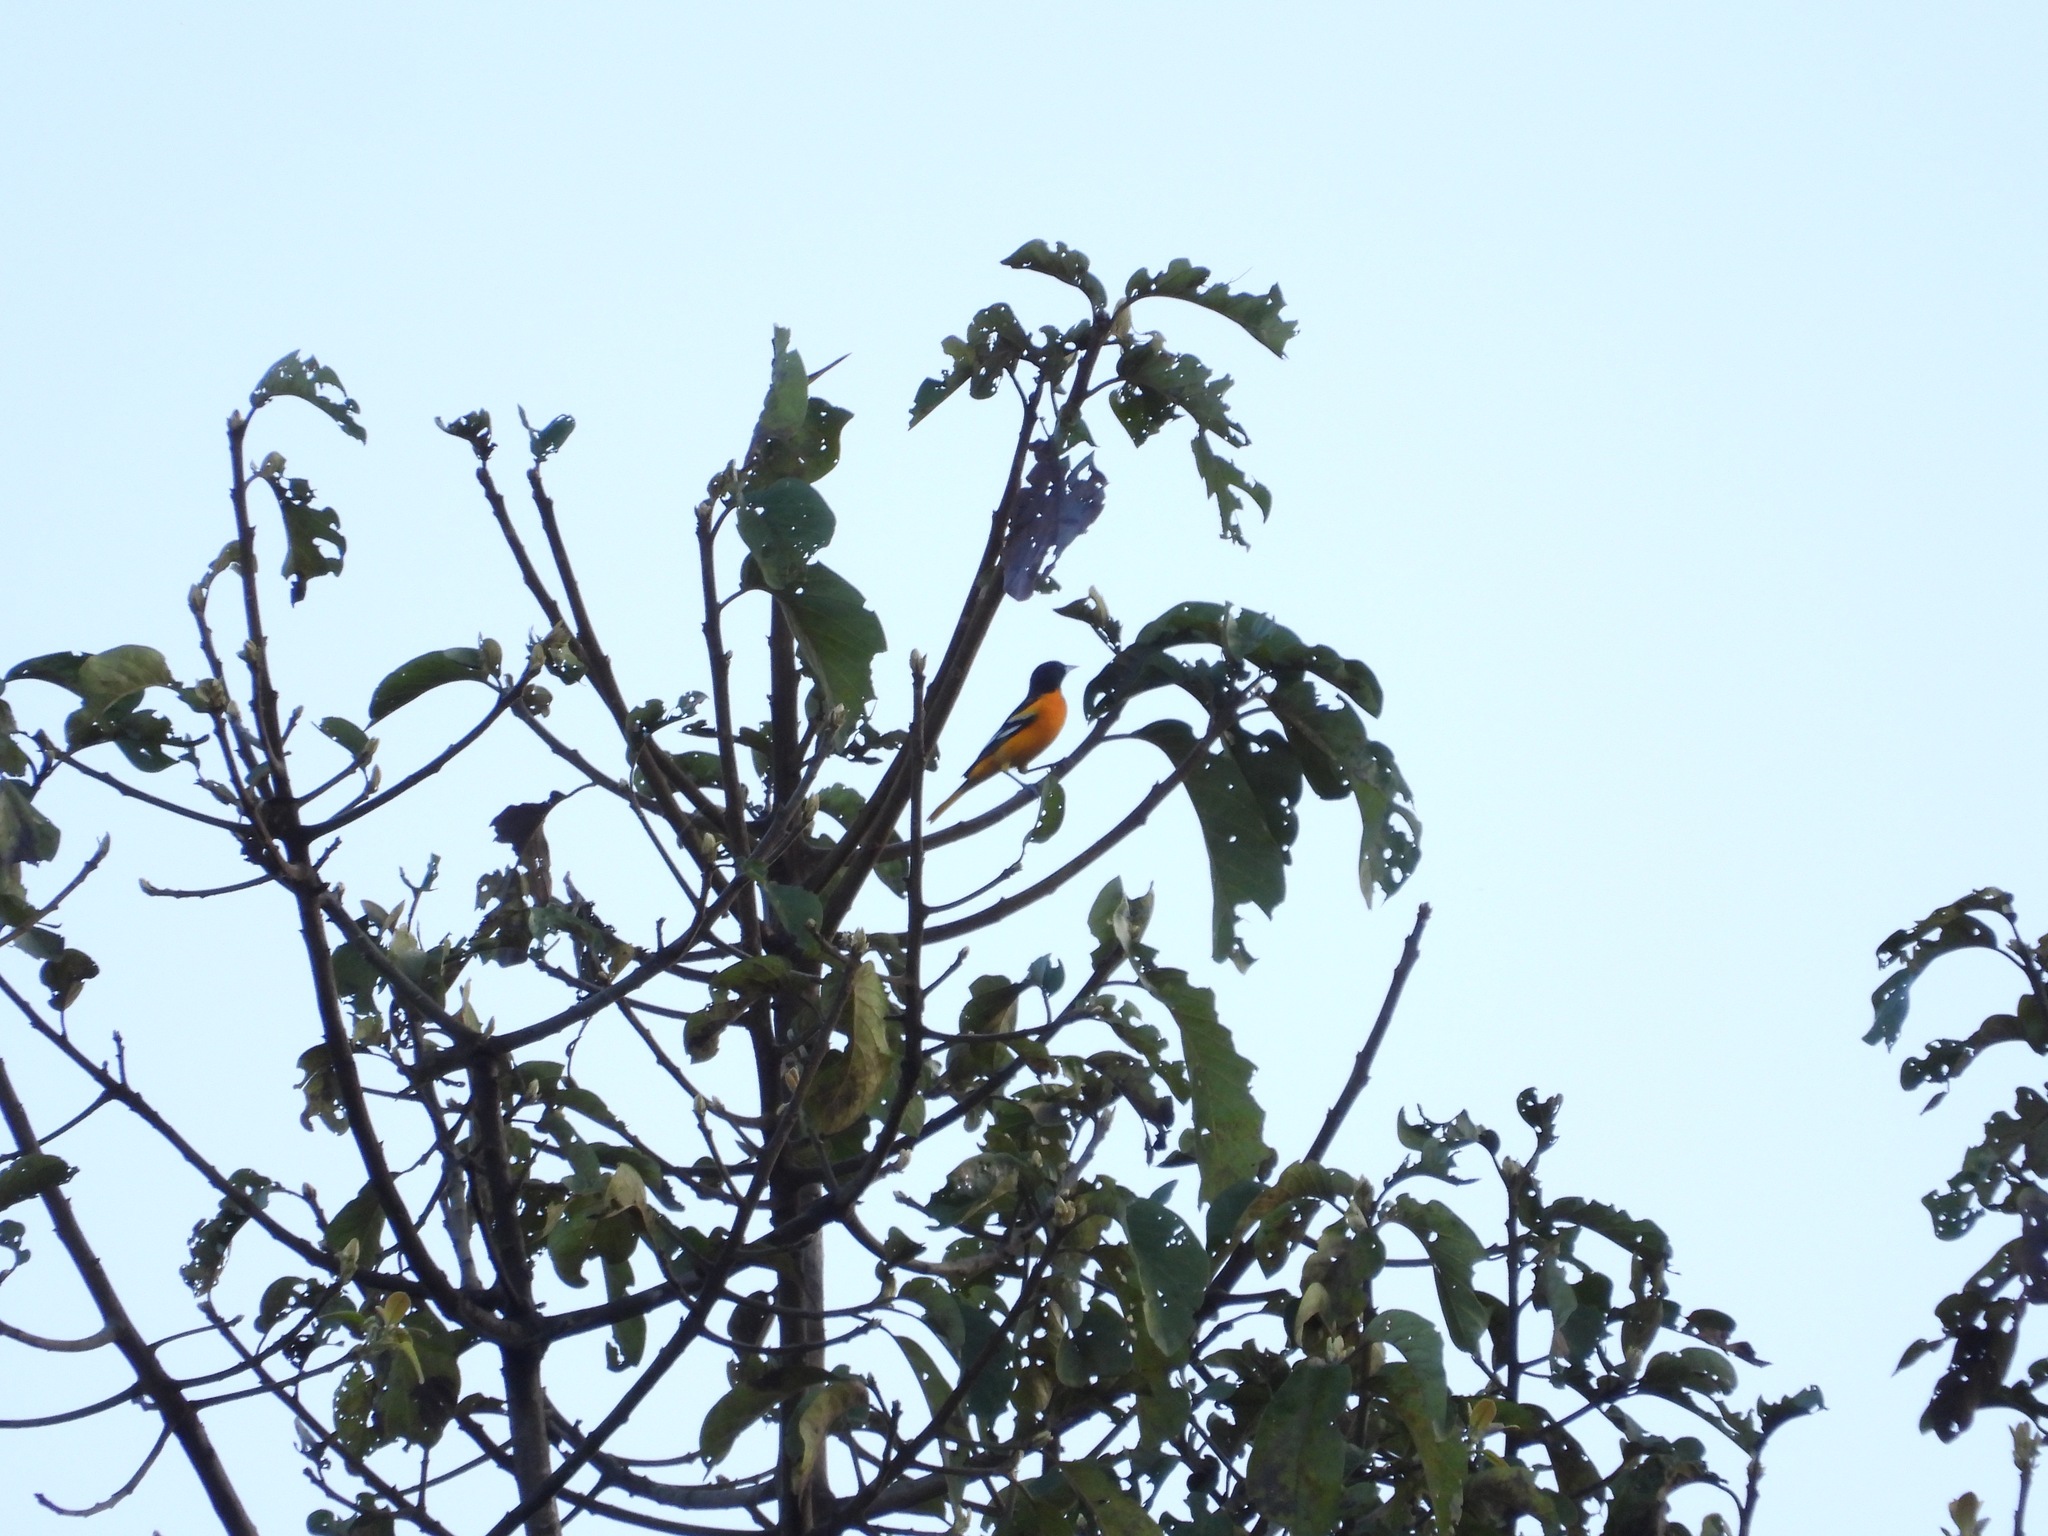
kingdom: Animalia
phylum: Chordata
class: Aves
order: Passeriformes
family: Icteridae
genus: Icterus
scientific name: Icterus galbula
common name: Baltimore oriole
